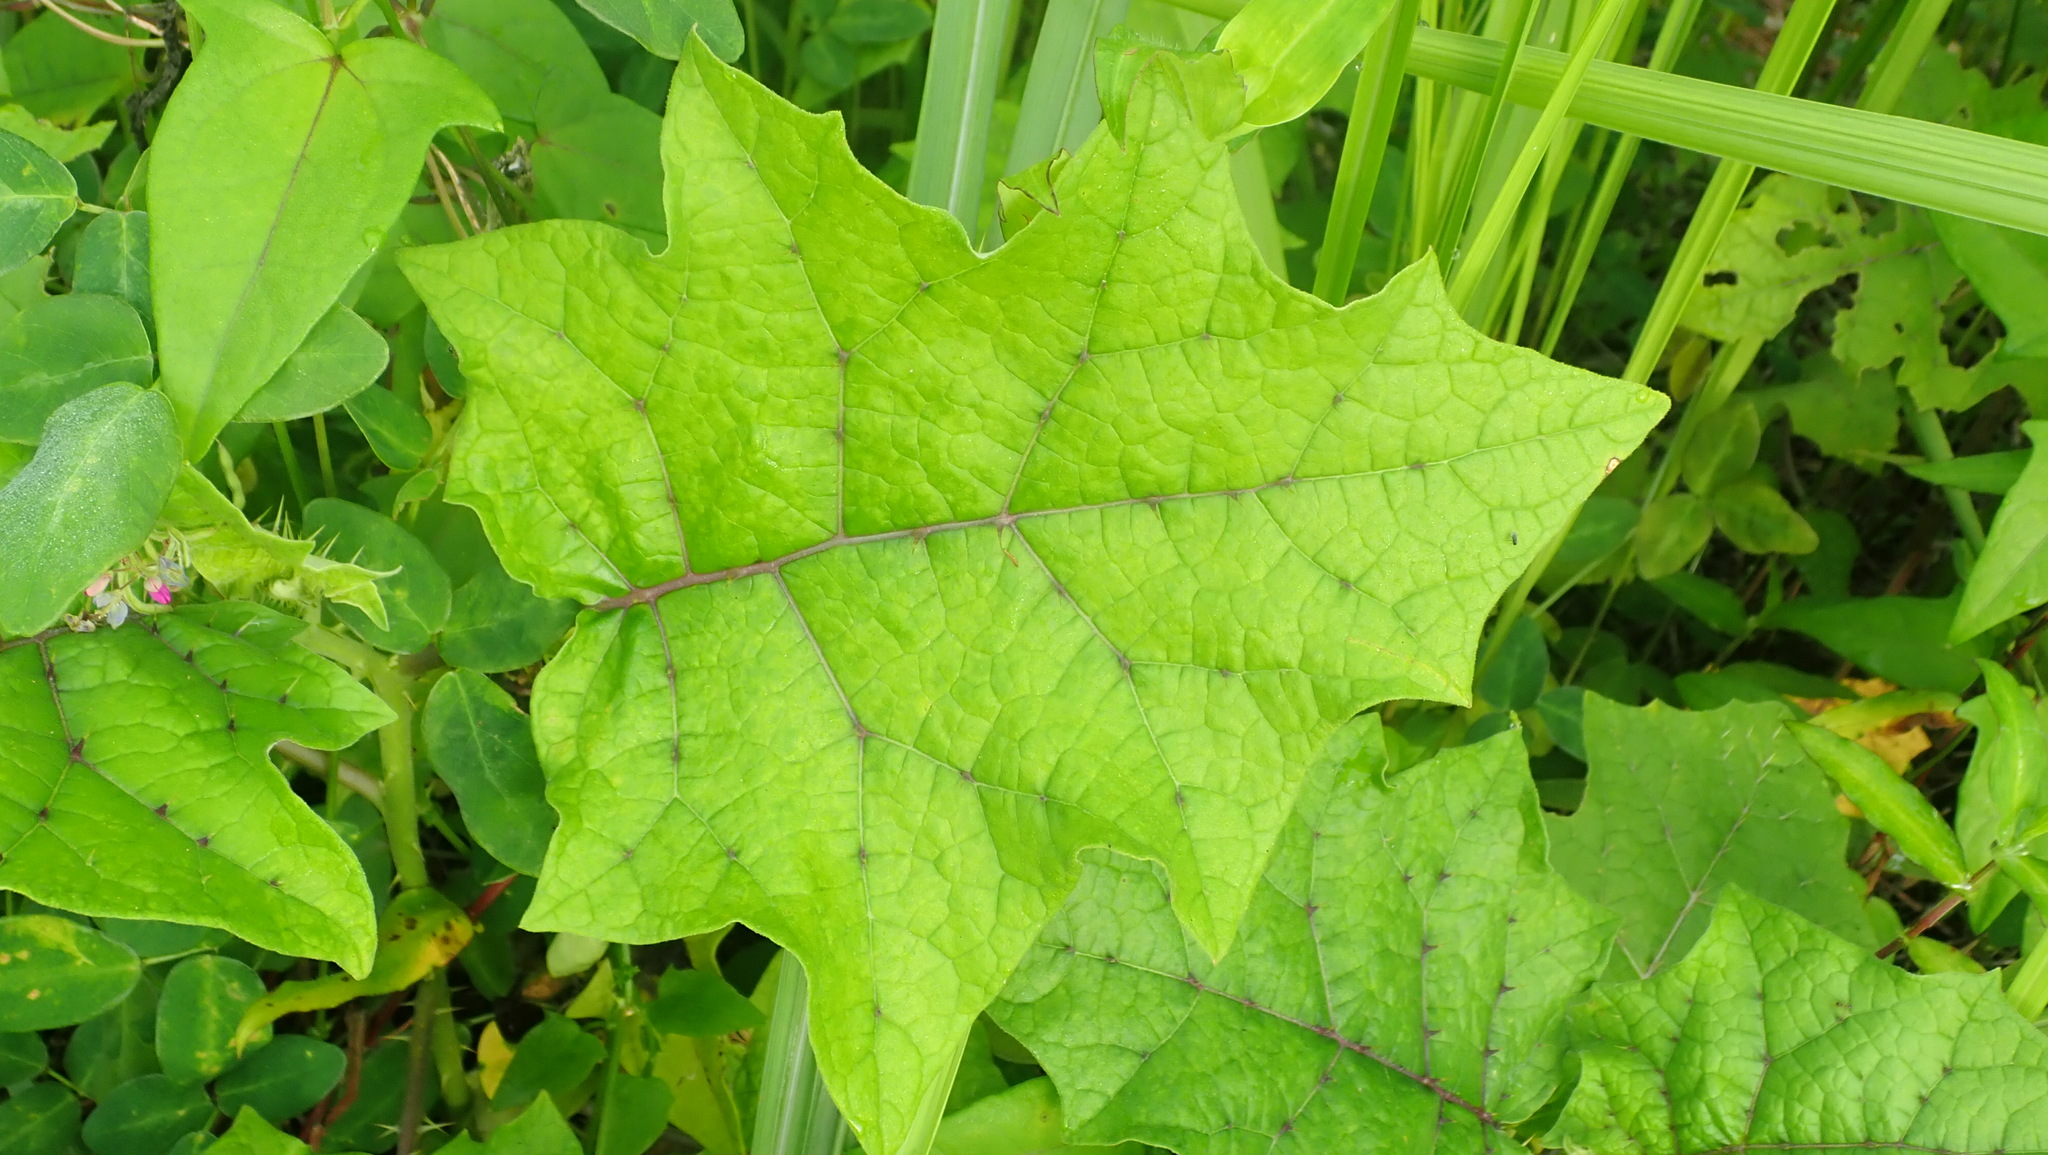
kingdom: Plantae
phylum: Tracheophyta
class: Magnoliopsida
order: Solanales
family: Solanaceae
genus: Solanum
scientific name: Solanum
